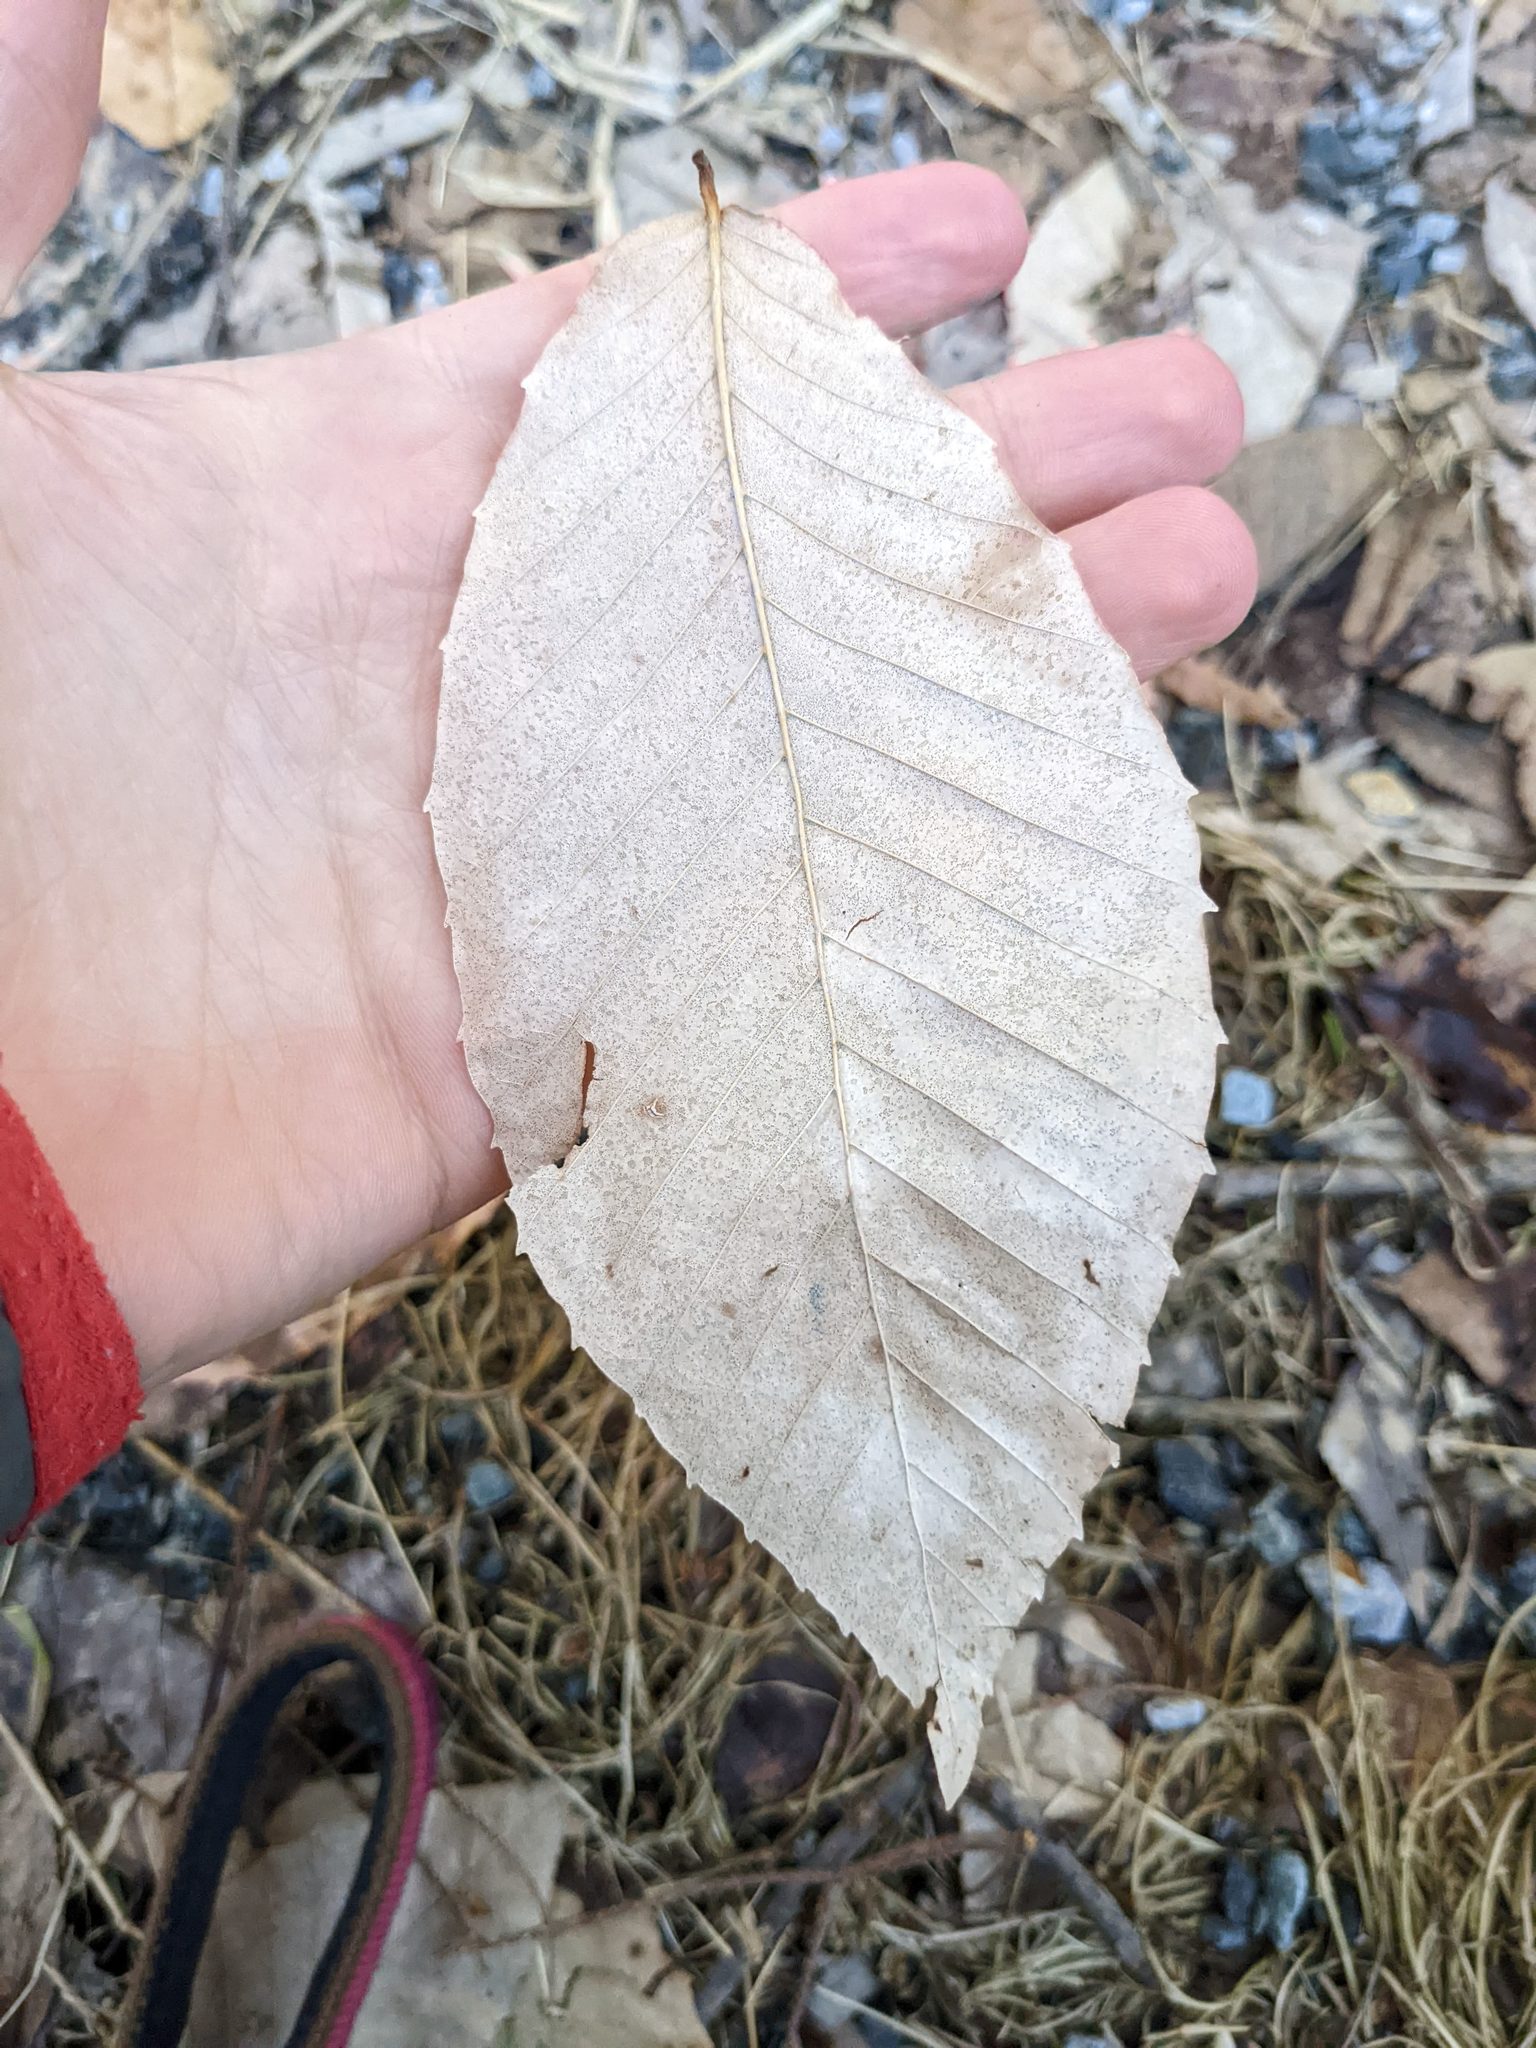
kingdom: Plantae
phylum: Tracheophyta
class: Magnoliopsida
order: Fagales
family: Fagaceae
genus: Fagus
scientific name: Fagus grandifolia
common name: American beech
